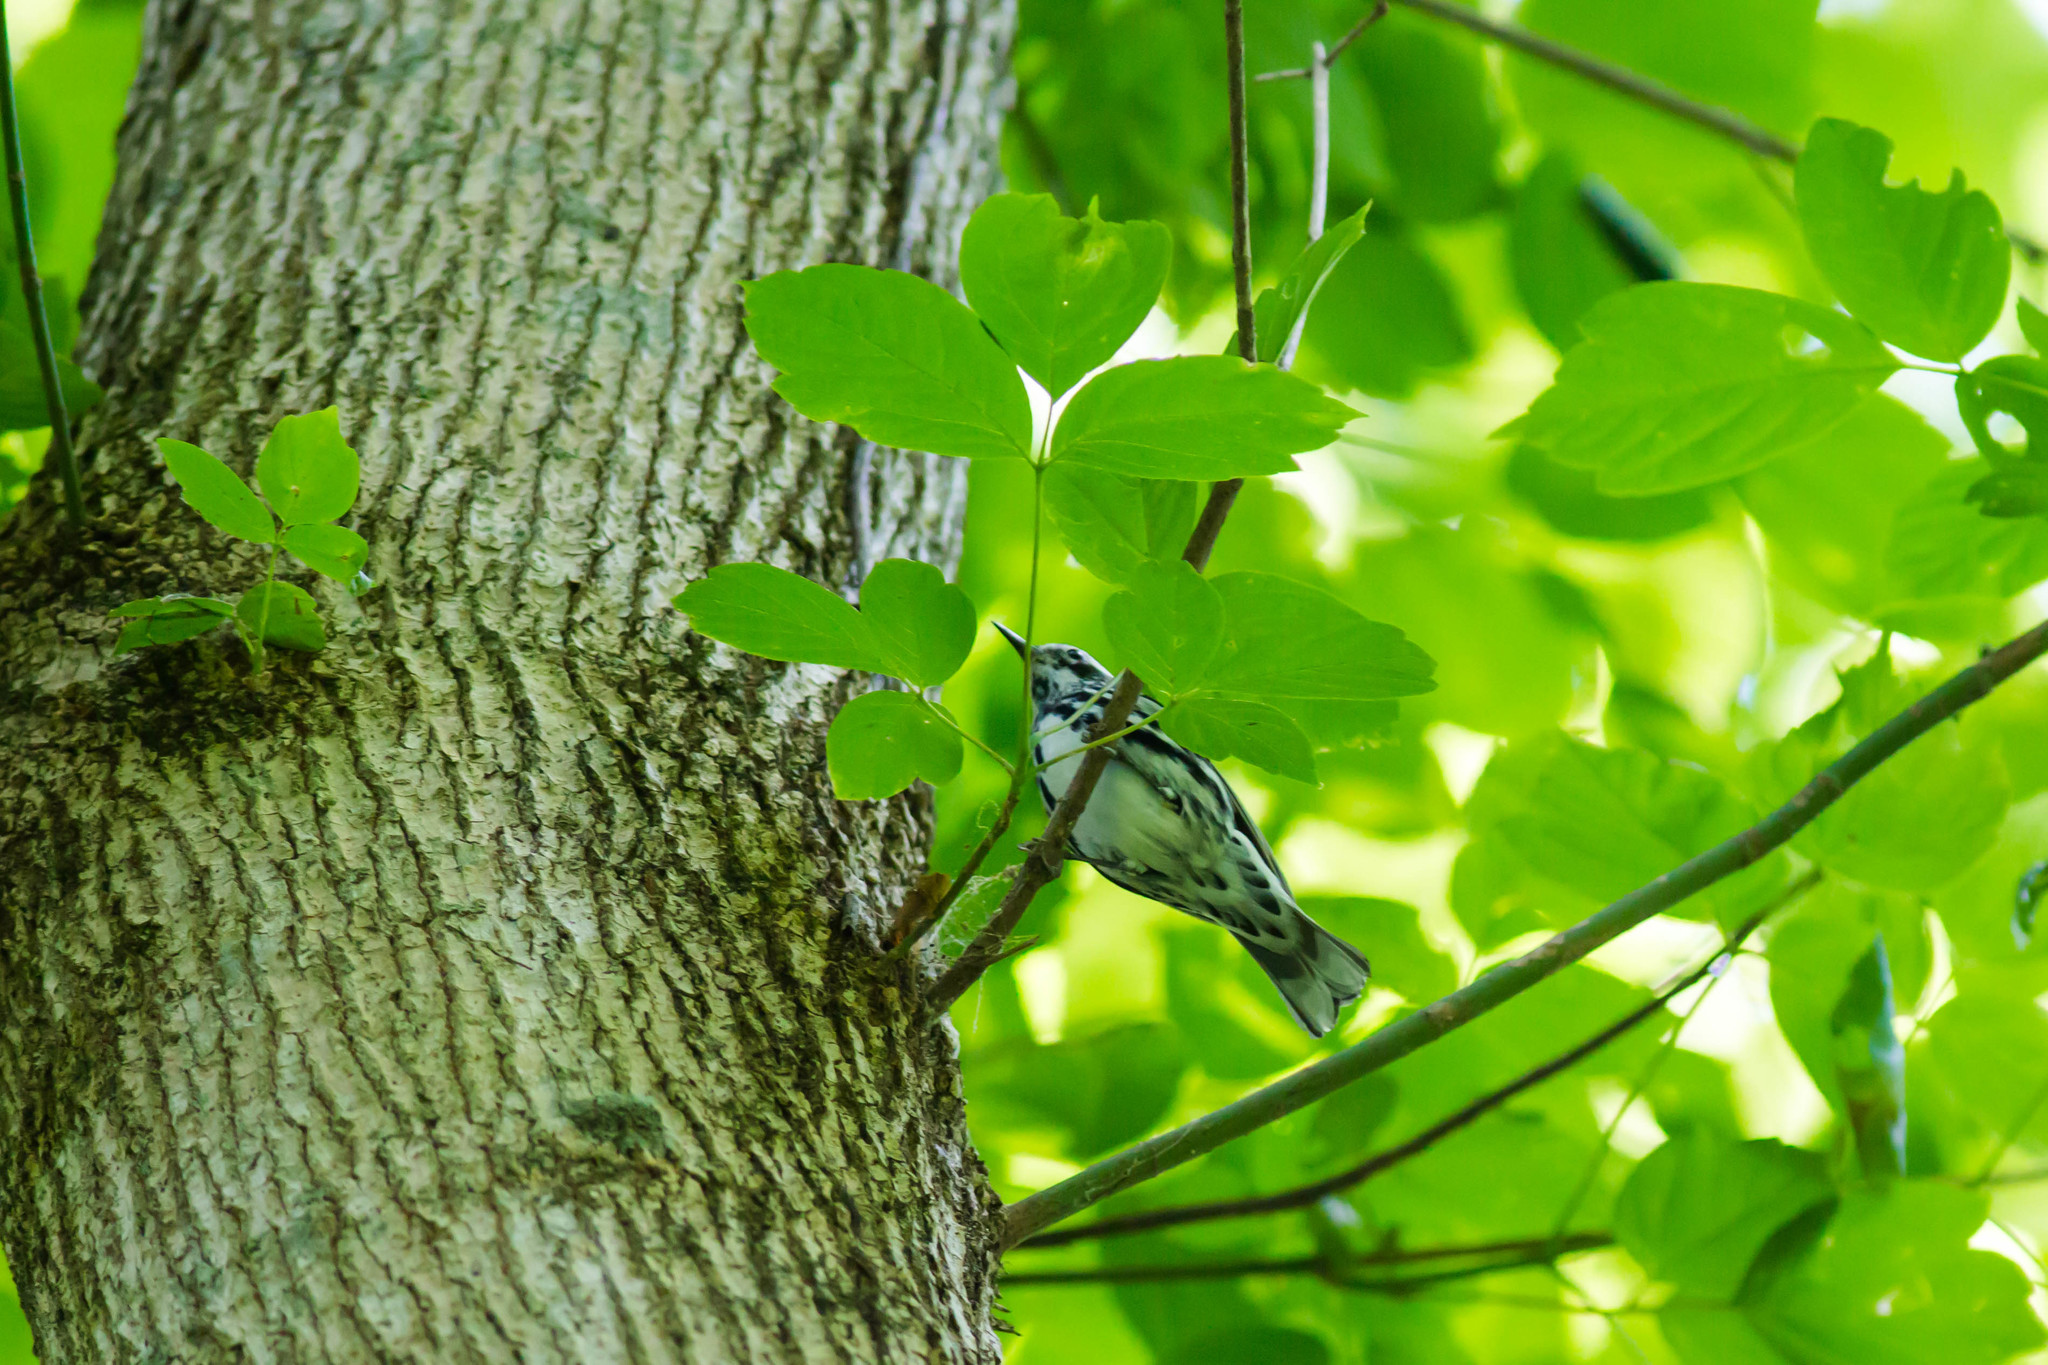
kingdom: Animalia
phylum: Chordata
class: Aves
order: Passeriformes
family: Parulidae
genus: Mniotilta
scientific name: Mniotilta varia
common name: Black-and-white warbler
